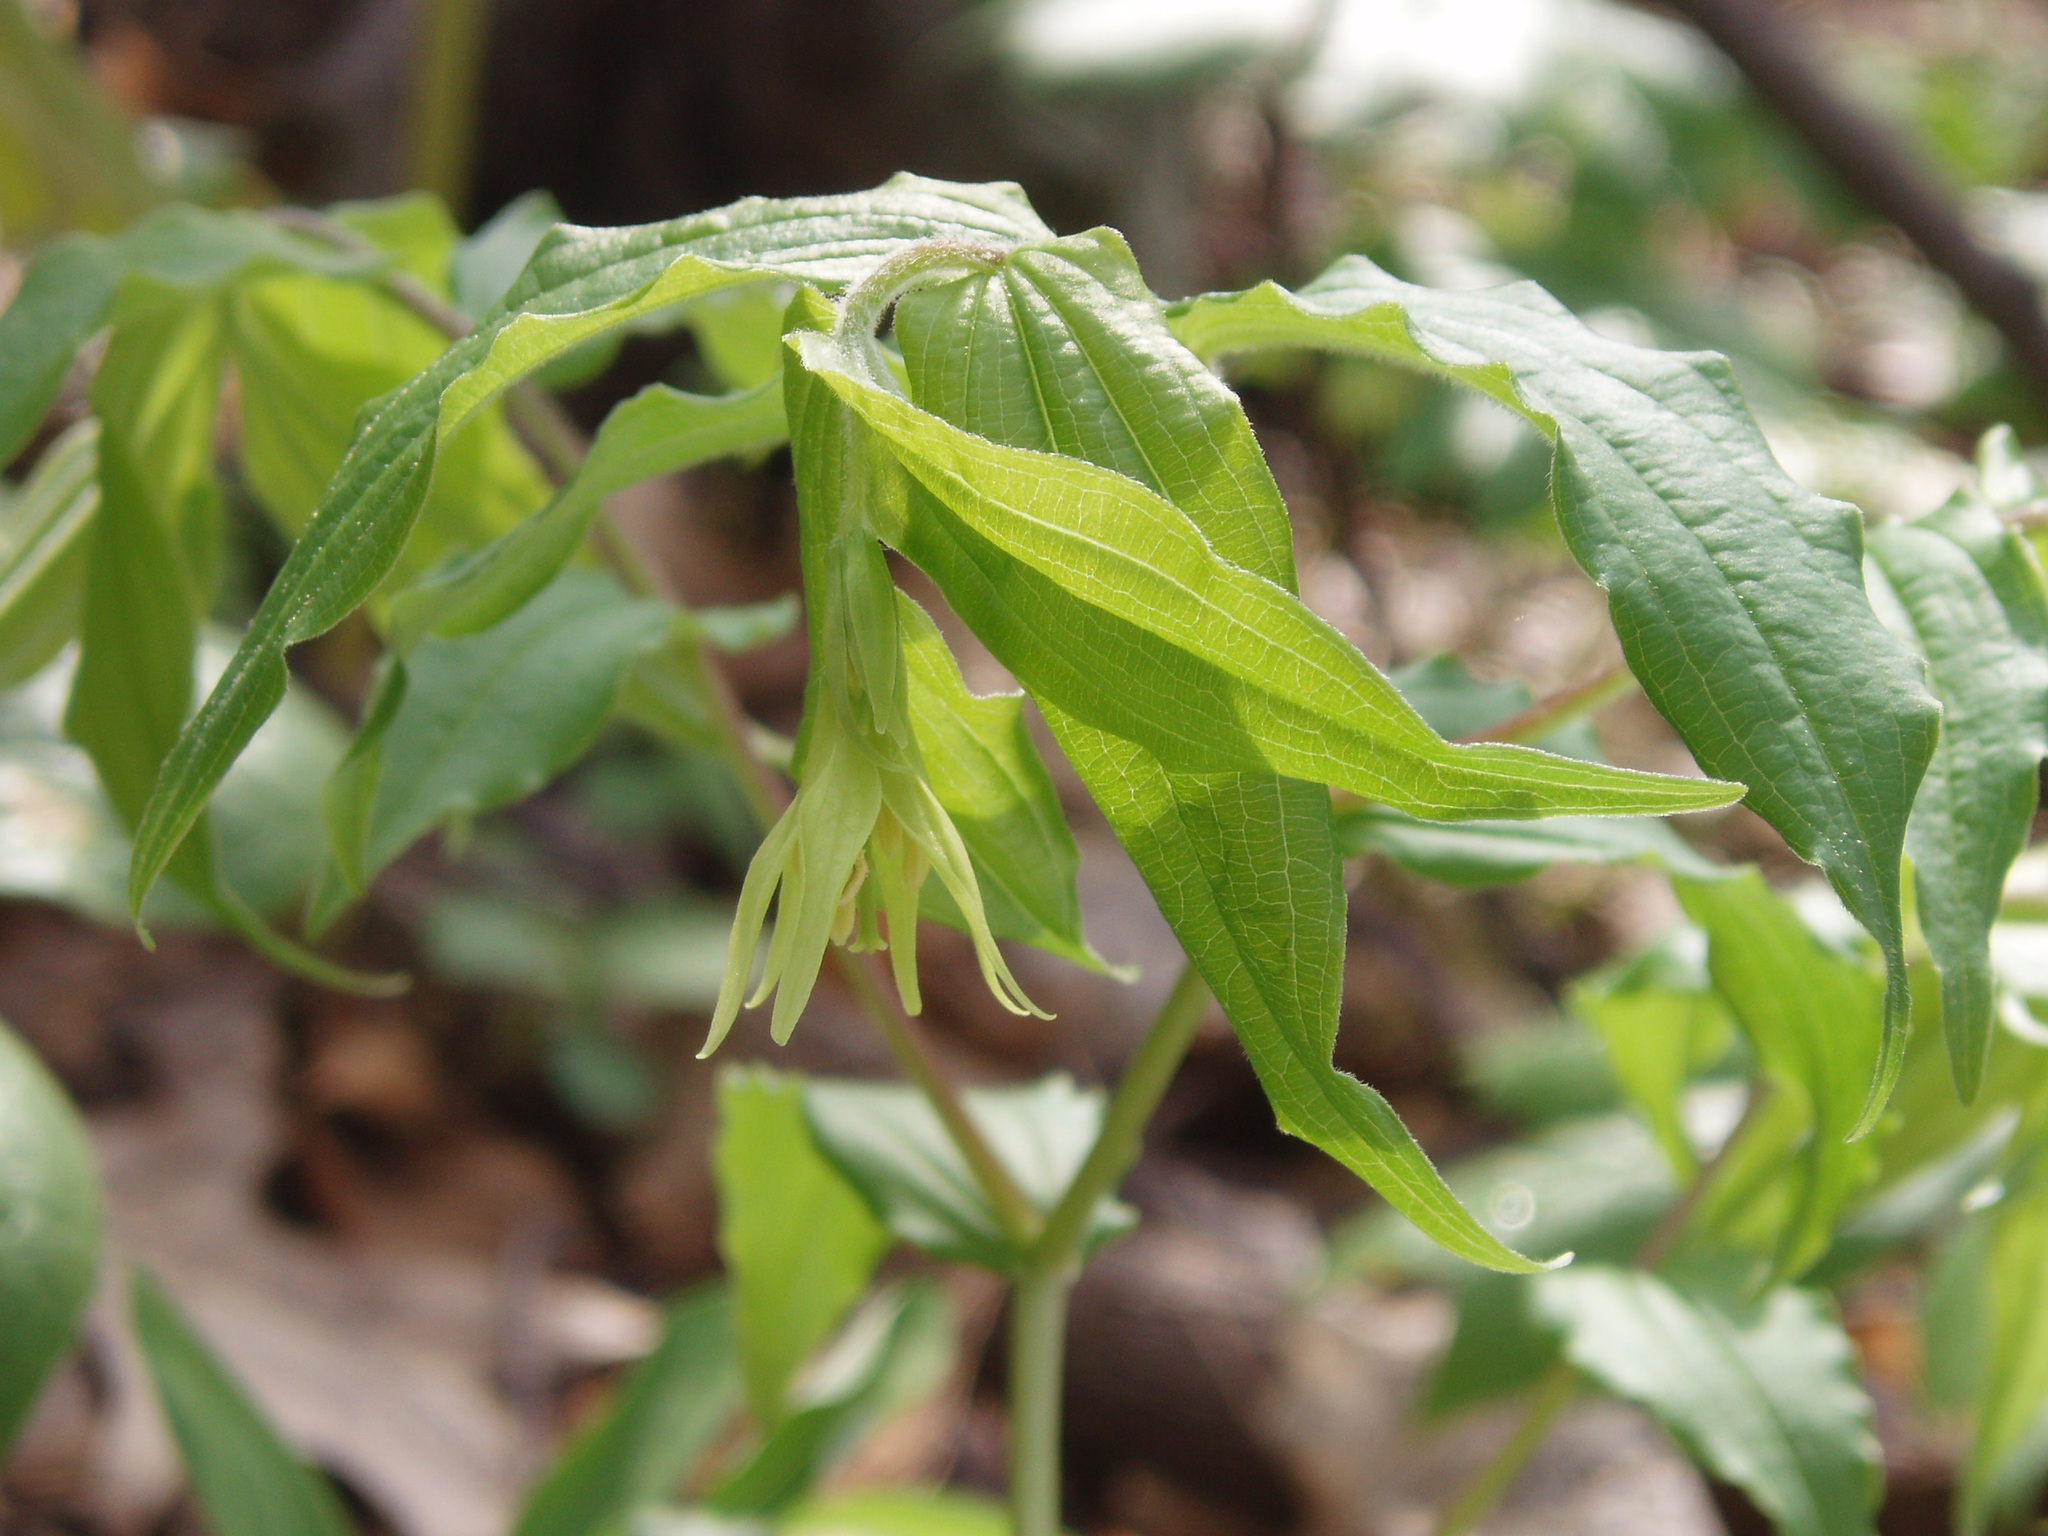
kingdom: Plantae
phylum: Tracheophyta
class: Liliopsida
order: Liliales
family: Liliaceae
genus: Prosartes
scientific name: Prosartes lanuginosa
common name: Hairy mandarin
